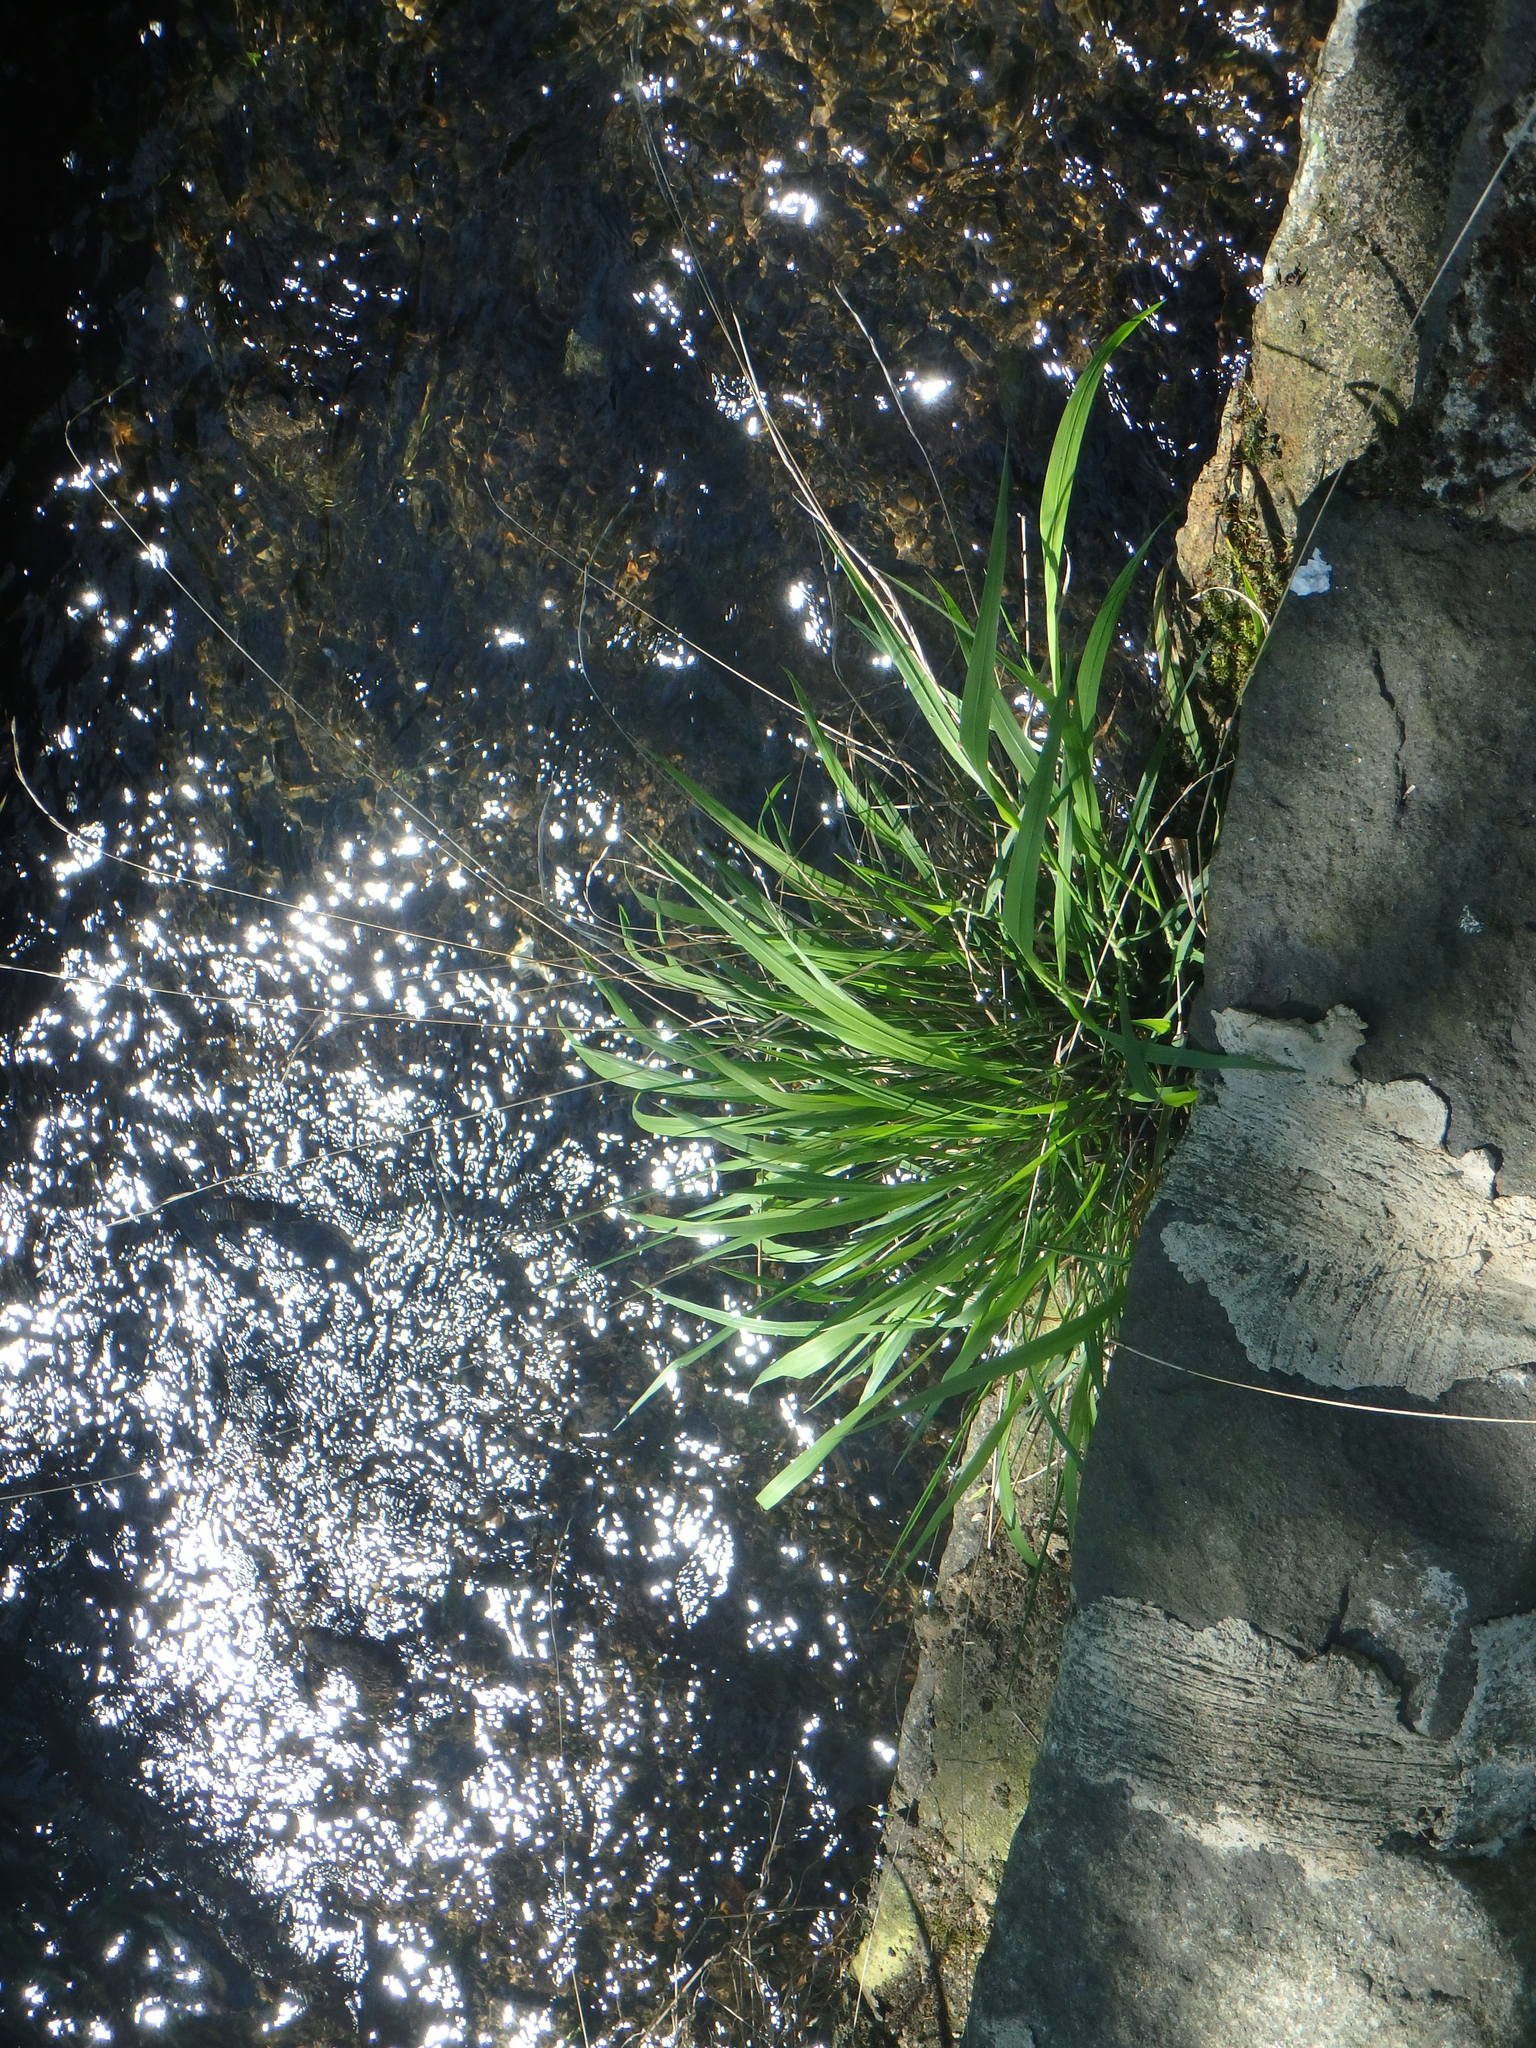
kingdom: Plantae
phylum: Tracheophyta
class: Liliopsida
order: Poales
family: Poaceae
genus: Brachypodium
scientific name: Brachypodium sylvaticum
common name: False-brome
